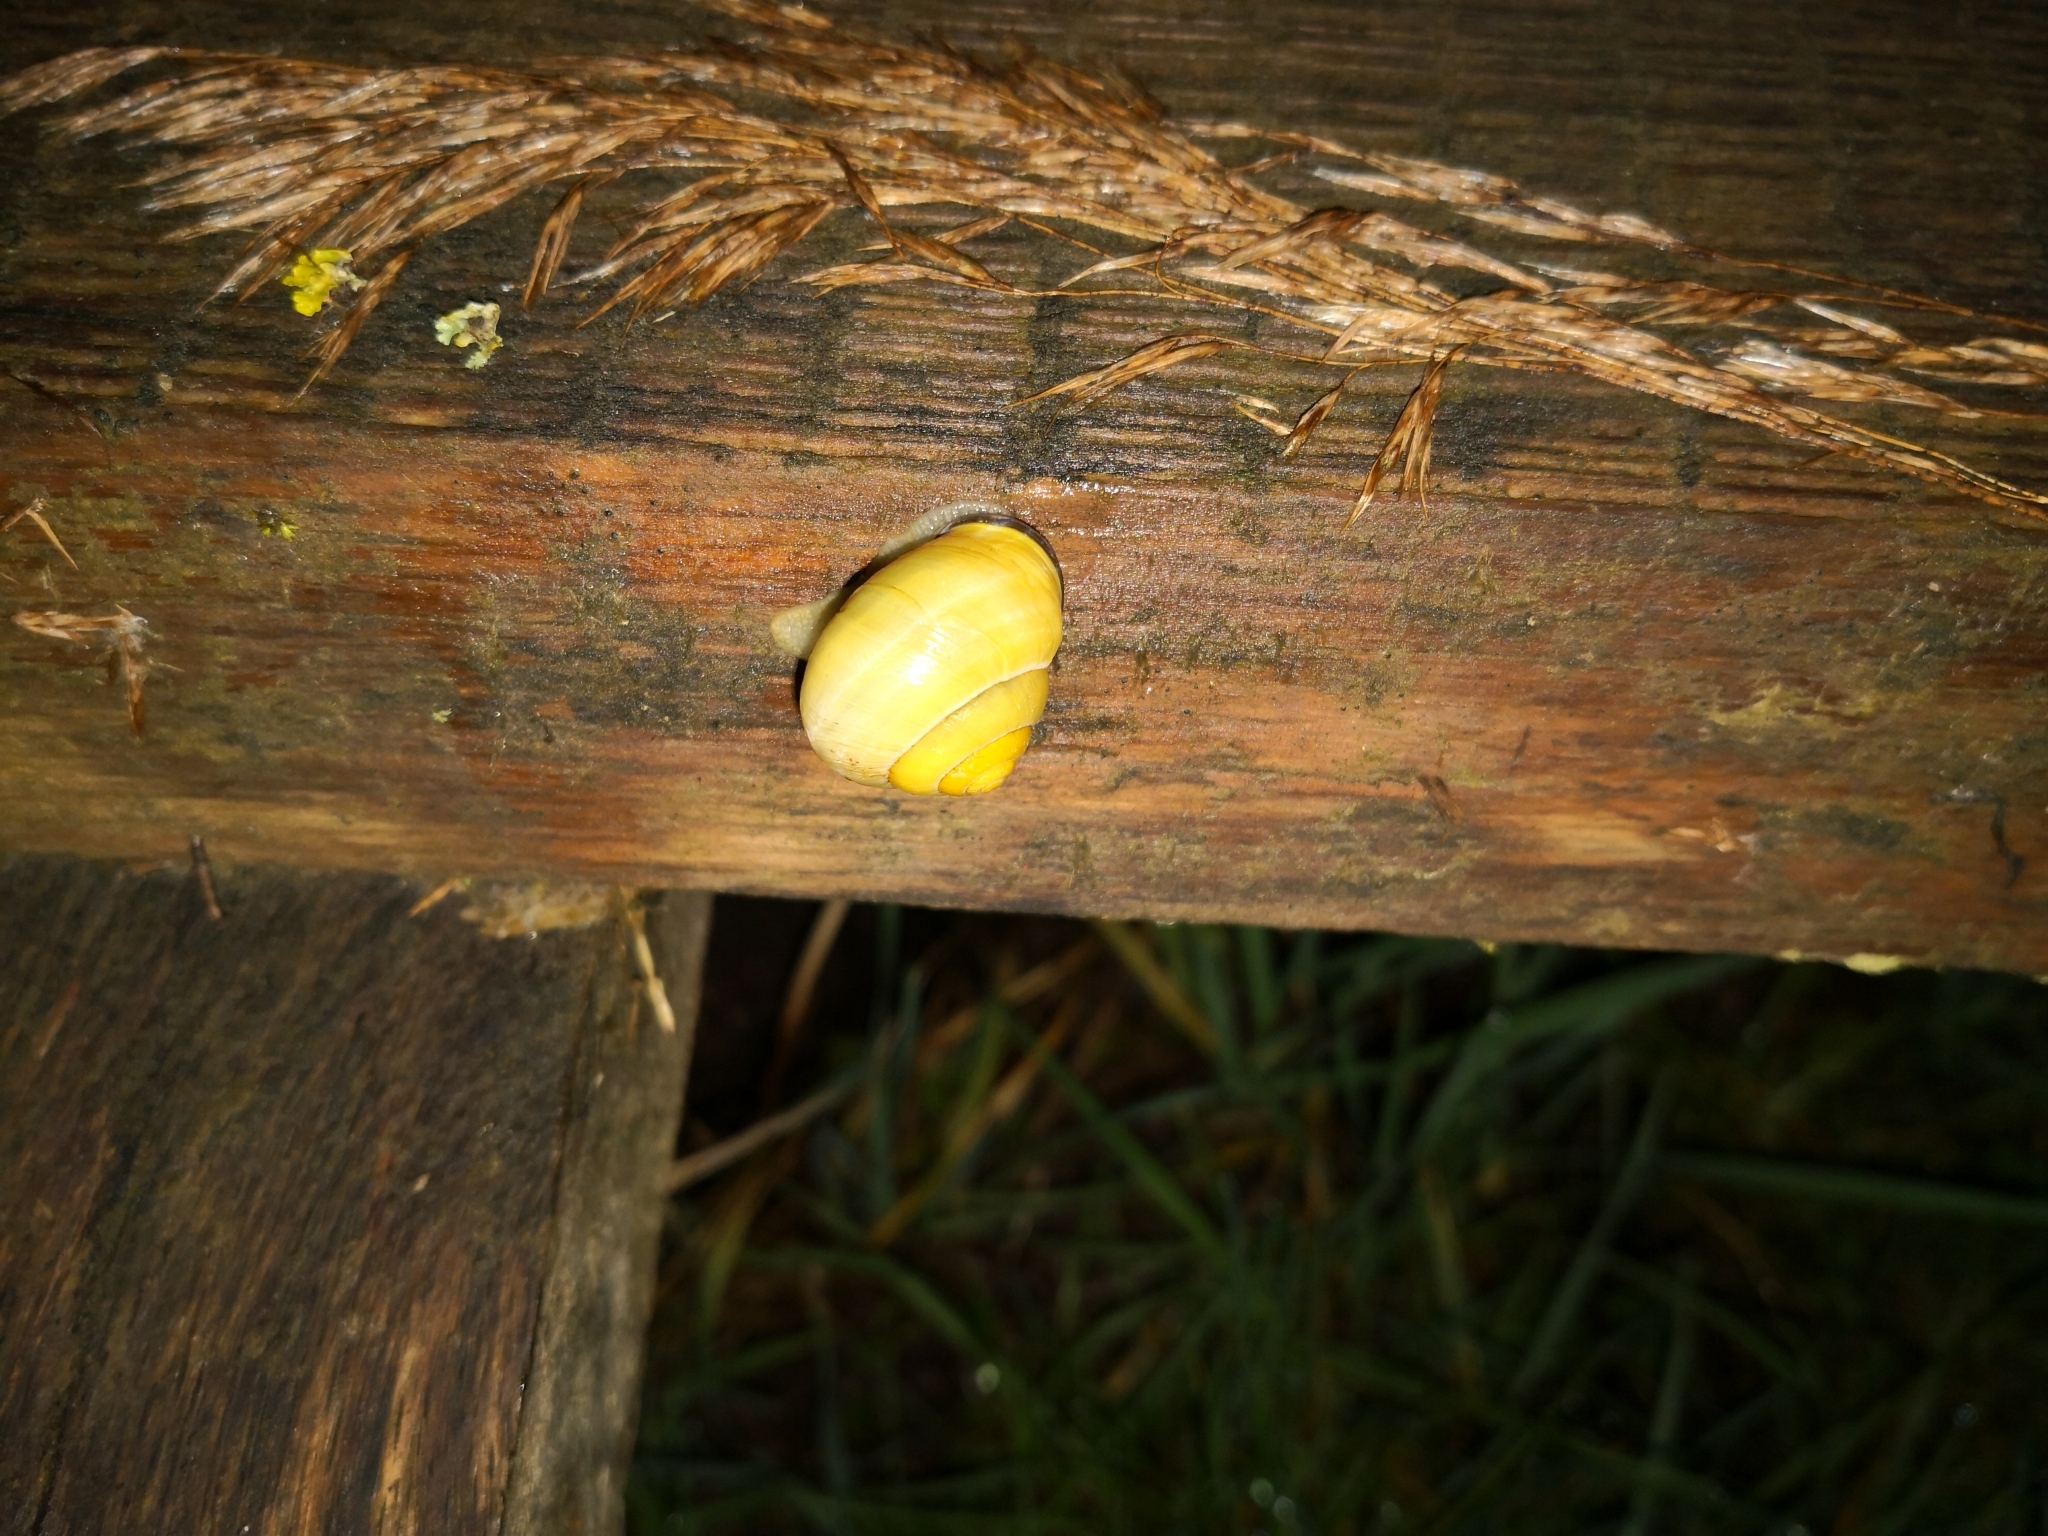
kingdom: Animalia
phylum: Mollusca
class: Gastropoda
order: Stylommatophora
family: Helicidae
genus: Cepaea
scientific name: Cepaea nemoralis
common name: Grovesnail
